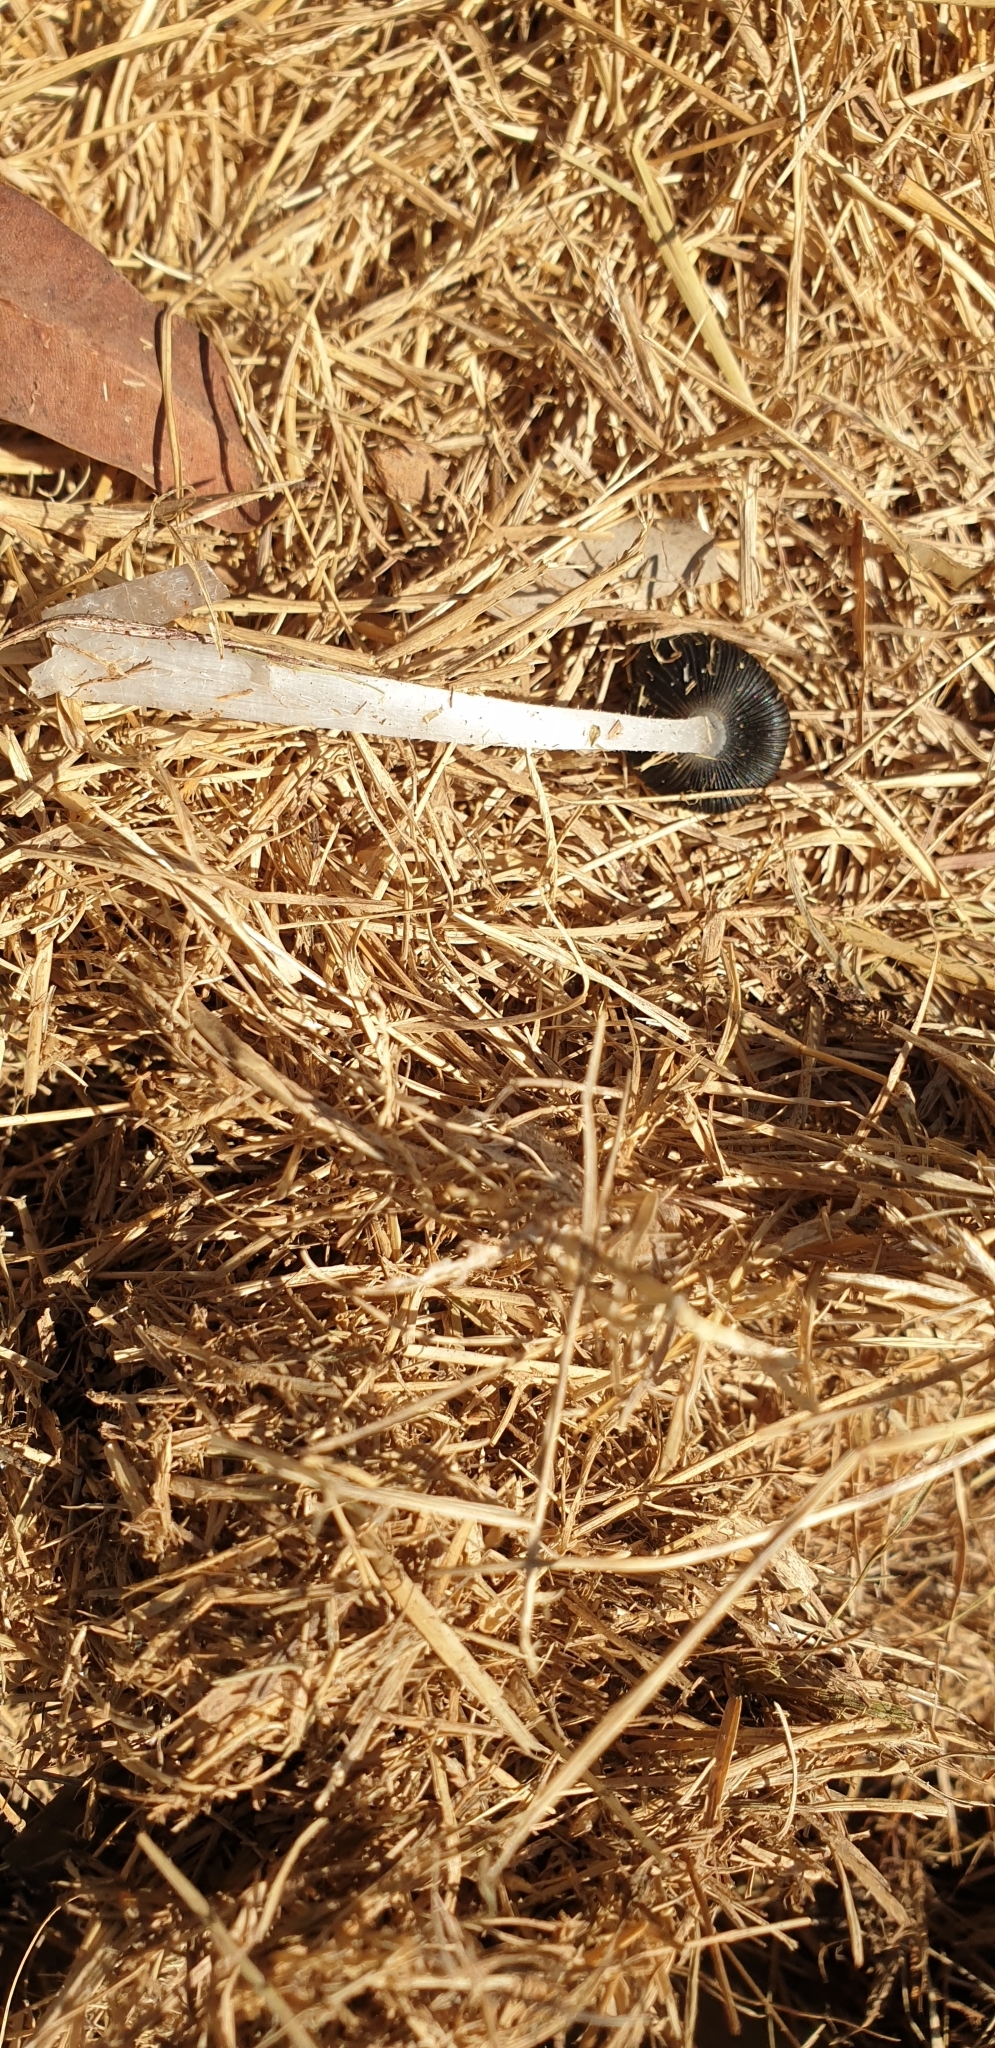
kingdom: Fungi
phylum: Basidiomycota
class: Agaricomycetes
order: Agaricales
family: Psathyrellaceae
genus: Coprinopsis
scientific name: Coprinopsis lagopus
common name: Hare'sfoot inkcap
